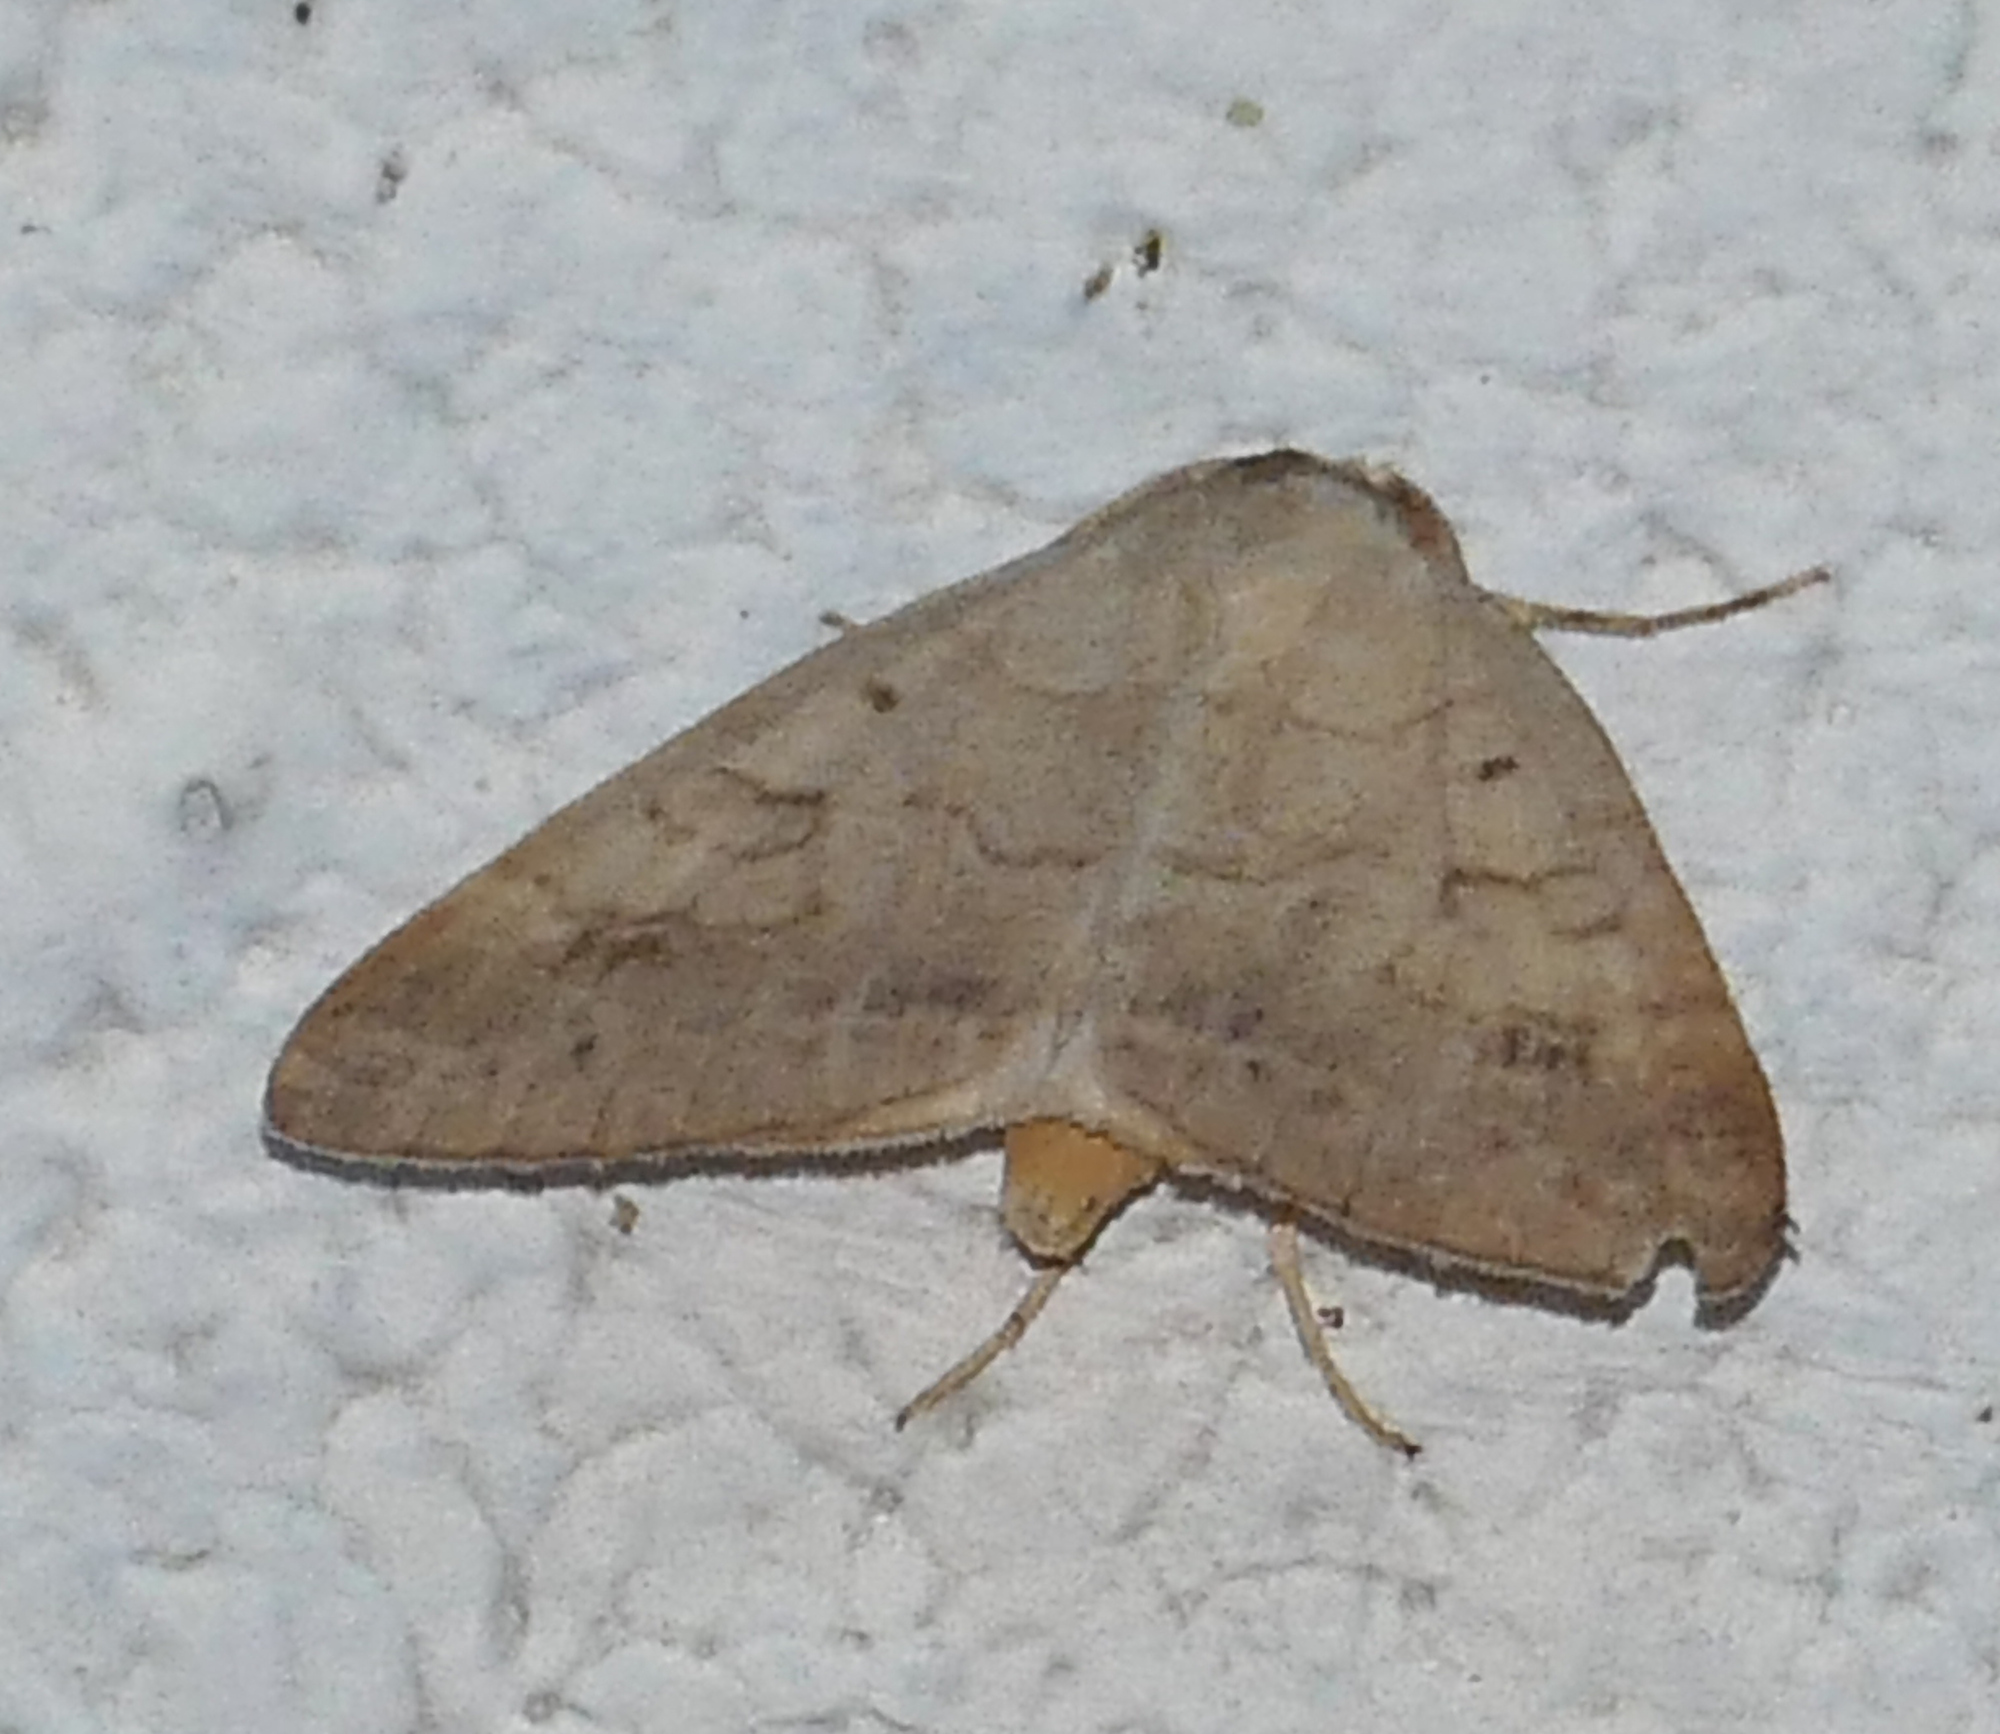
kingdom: Animalia
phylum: Arthropoda
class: Insecta
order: Lepidoptera
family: Erebidae
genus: Caenurgia
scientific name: Caenurgia chloropha
